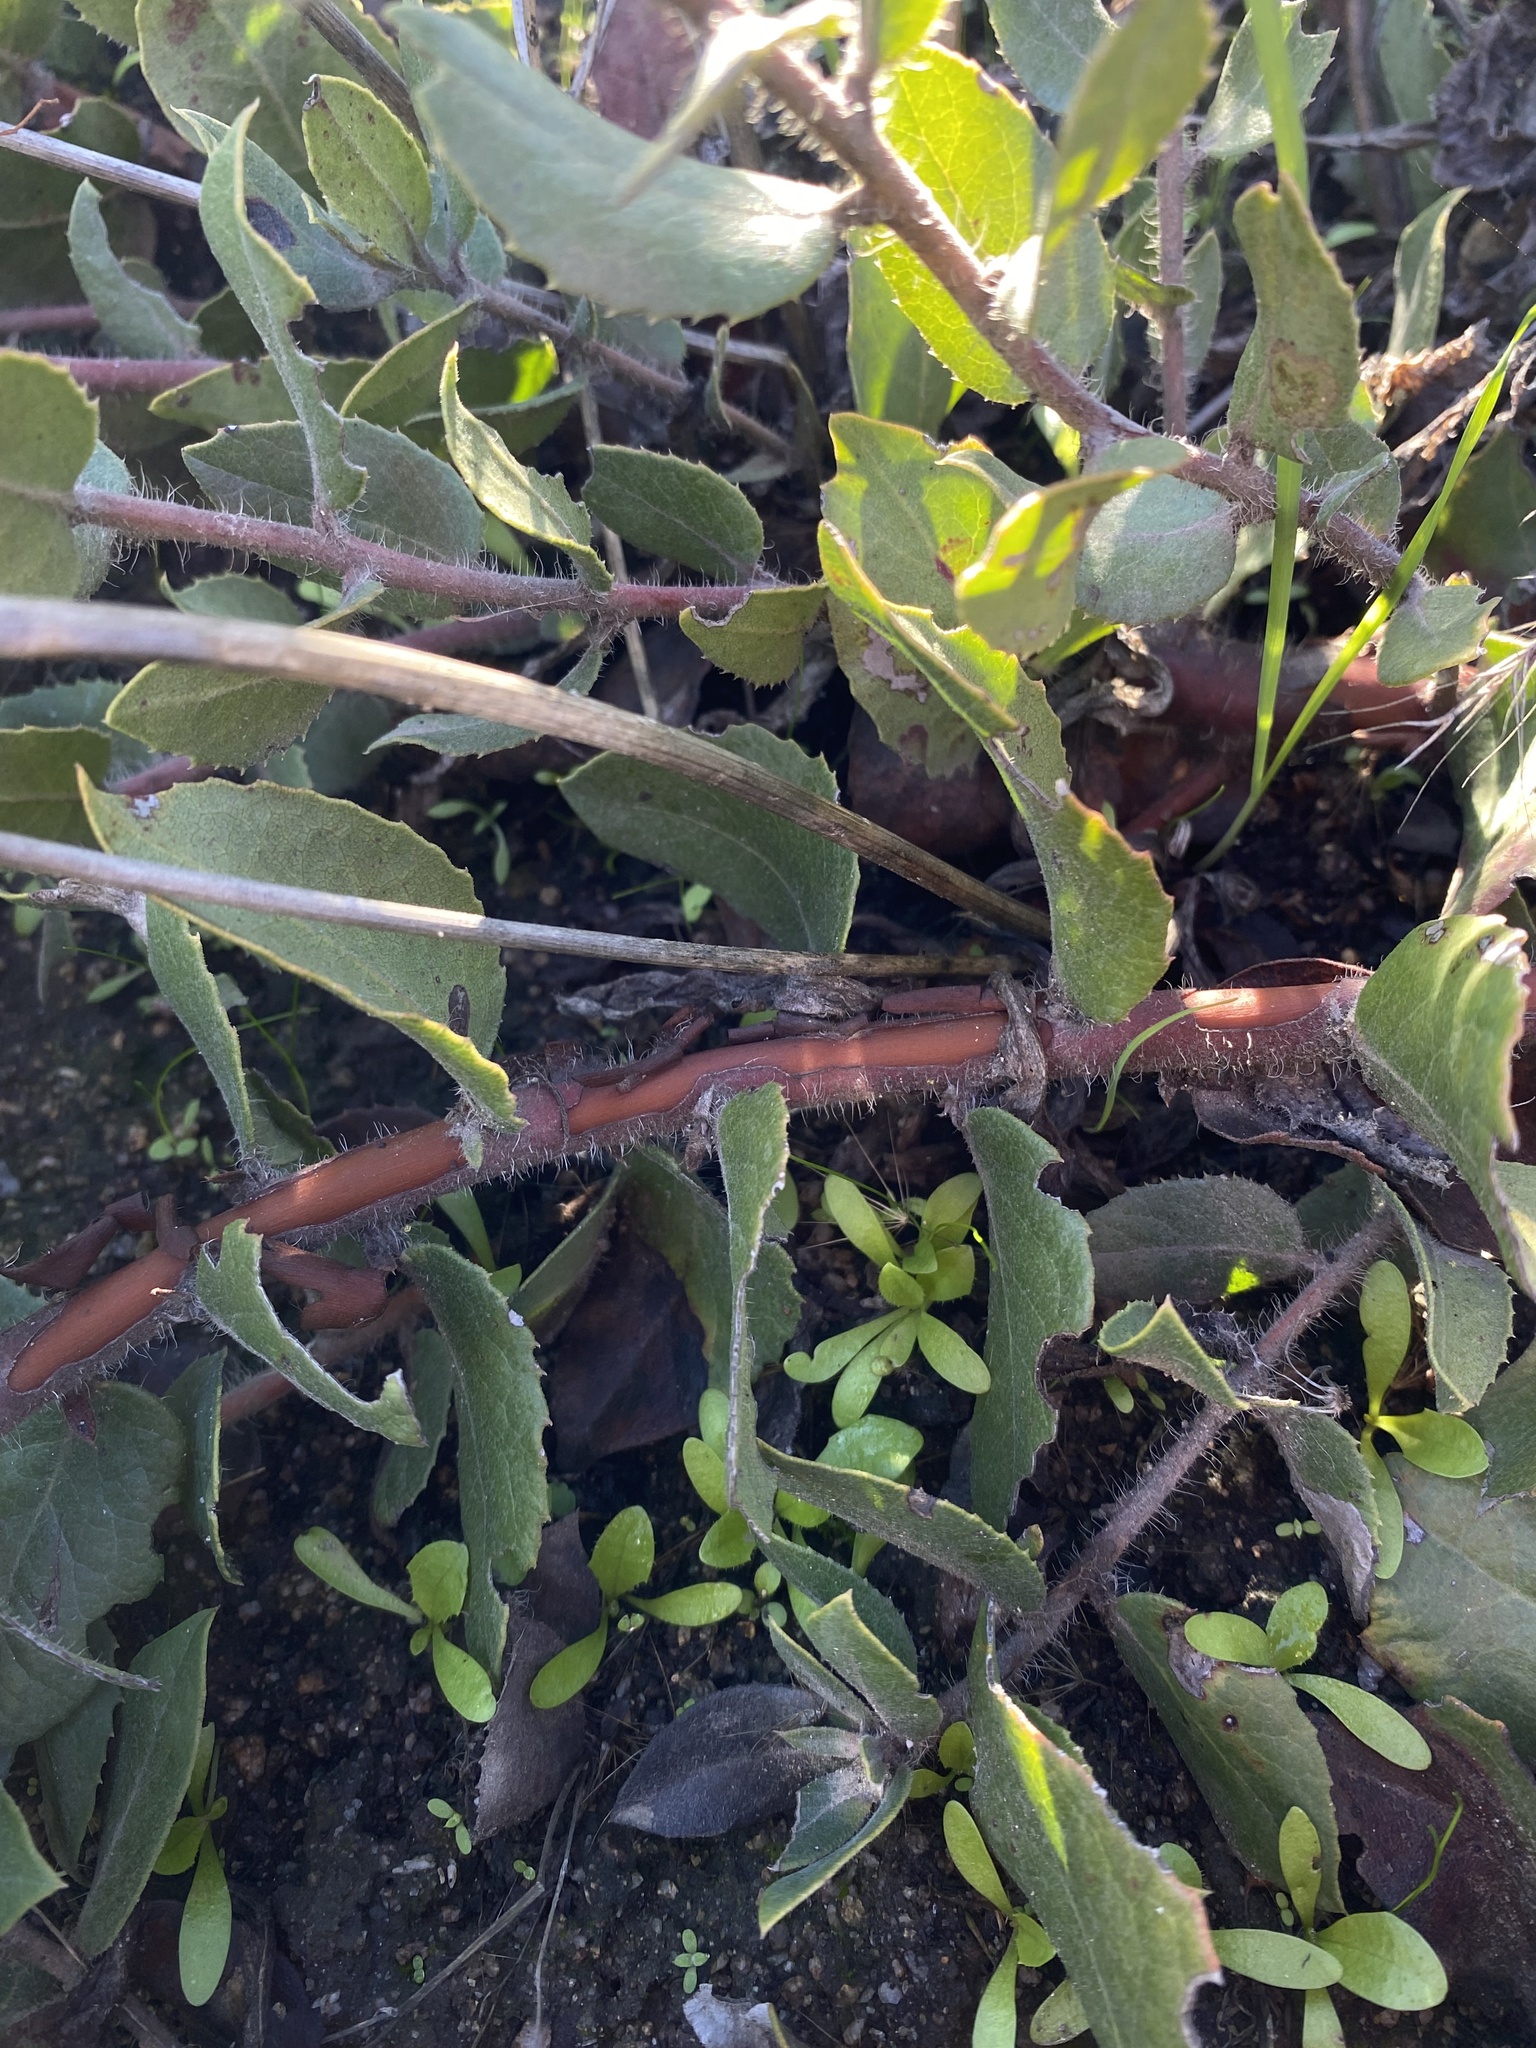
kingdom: Plantae
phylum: Tracheophyta
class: Magnoliopsida
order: Ericales
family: Ericaceae
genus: Arctostaphylos
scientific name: Arctostaphylos crustacea
